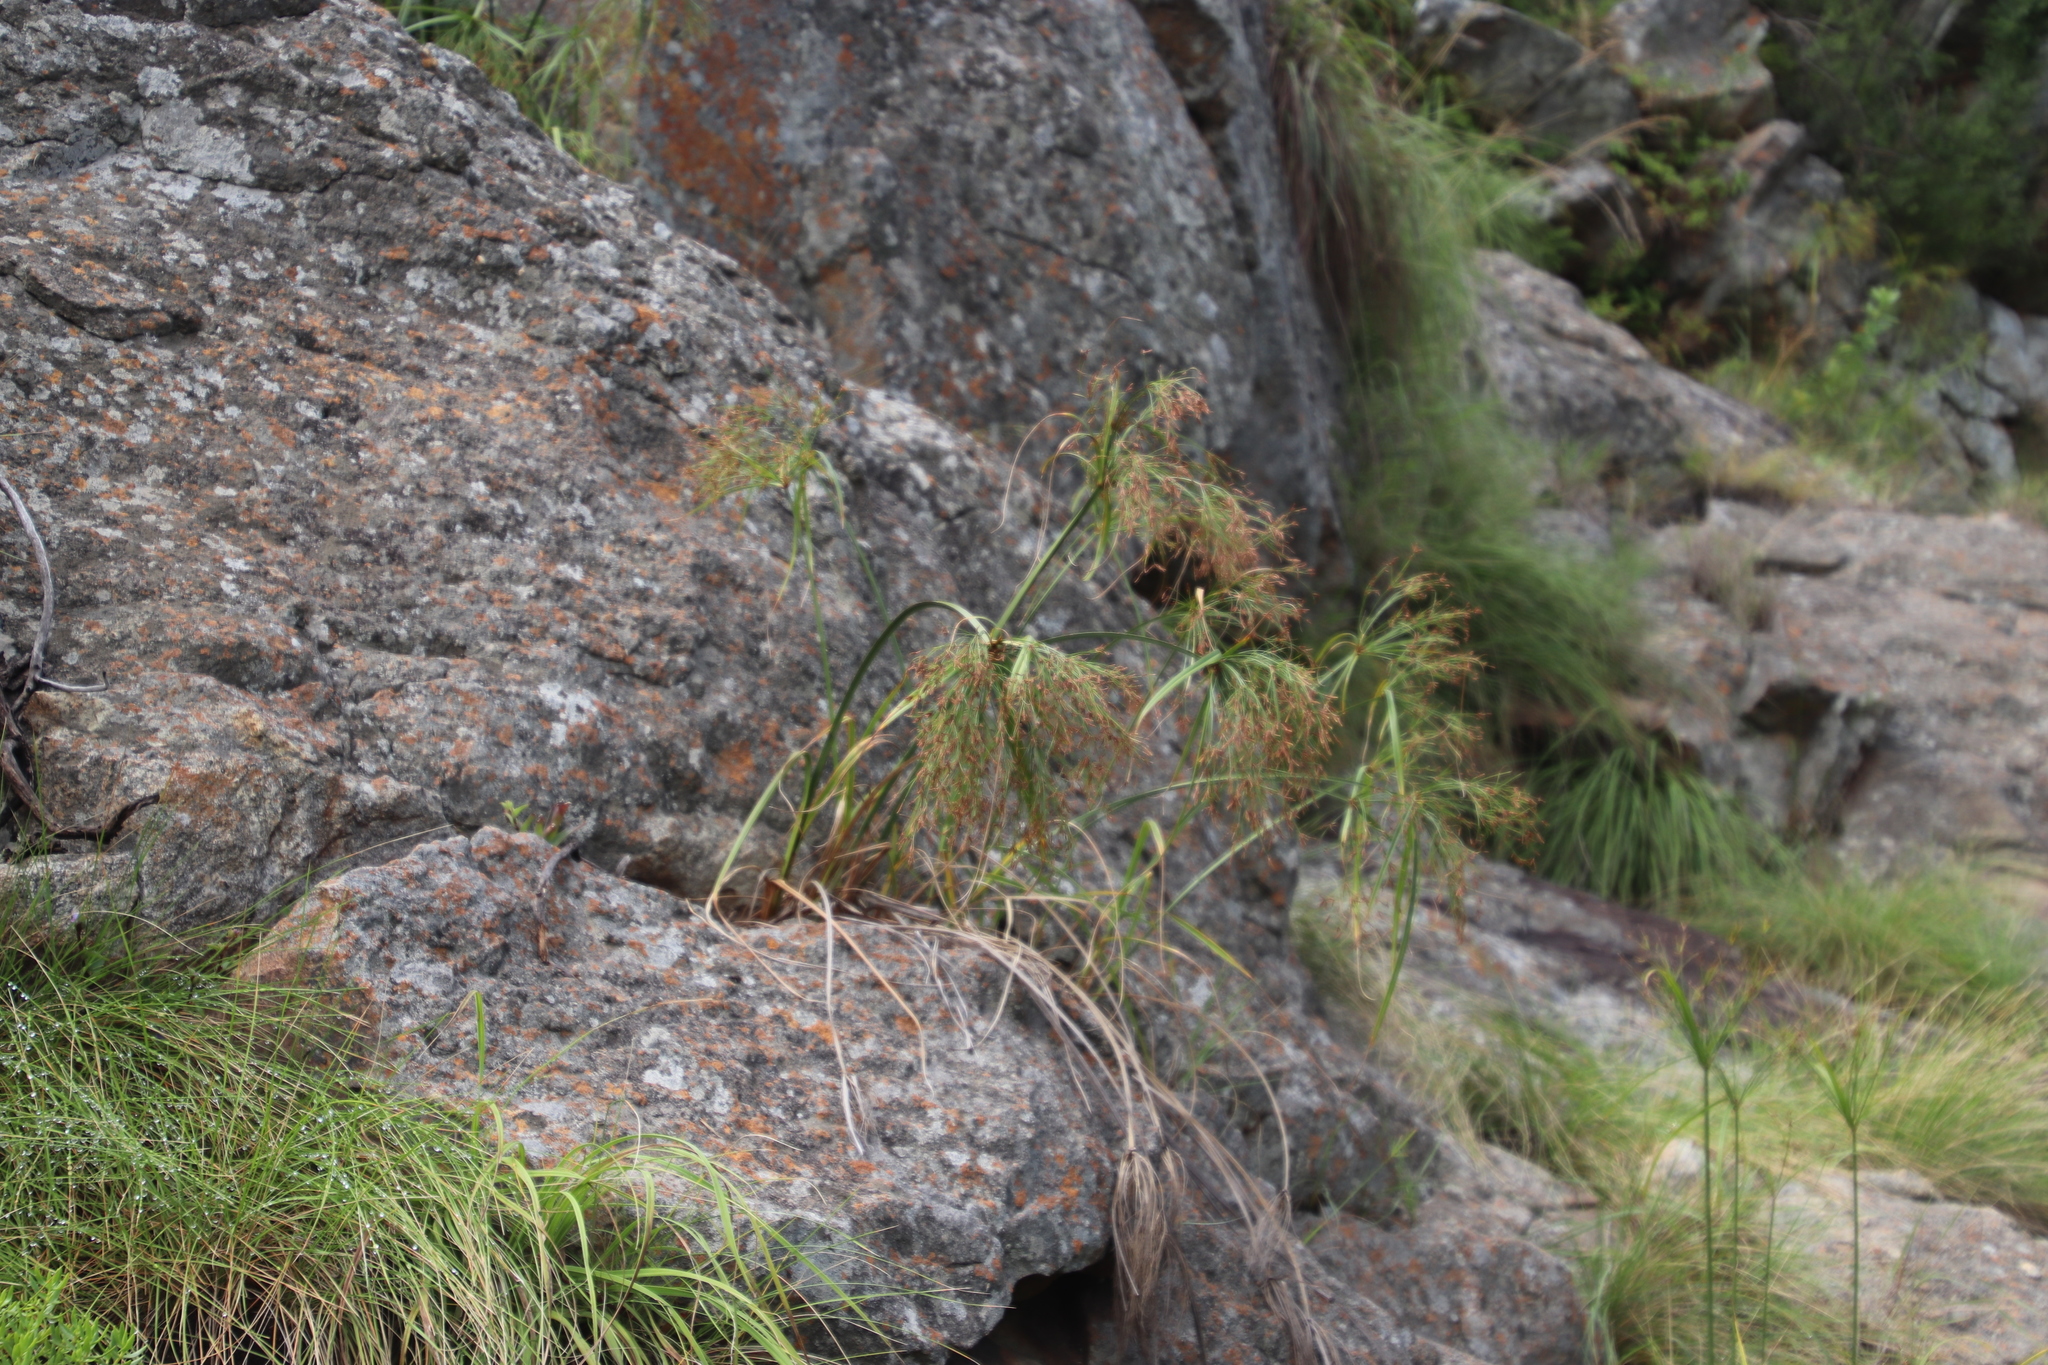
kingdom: Plantae
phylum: Tracheophyta
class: Liliopsida
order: Poales
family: Cyperaceae
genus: Cyperus
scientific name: Cyperus leptocladus
